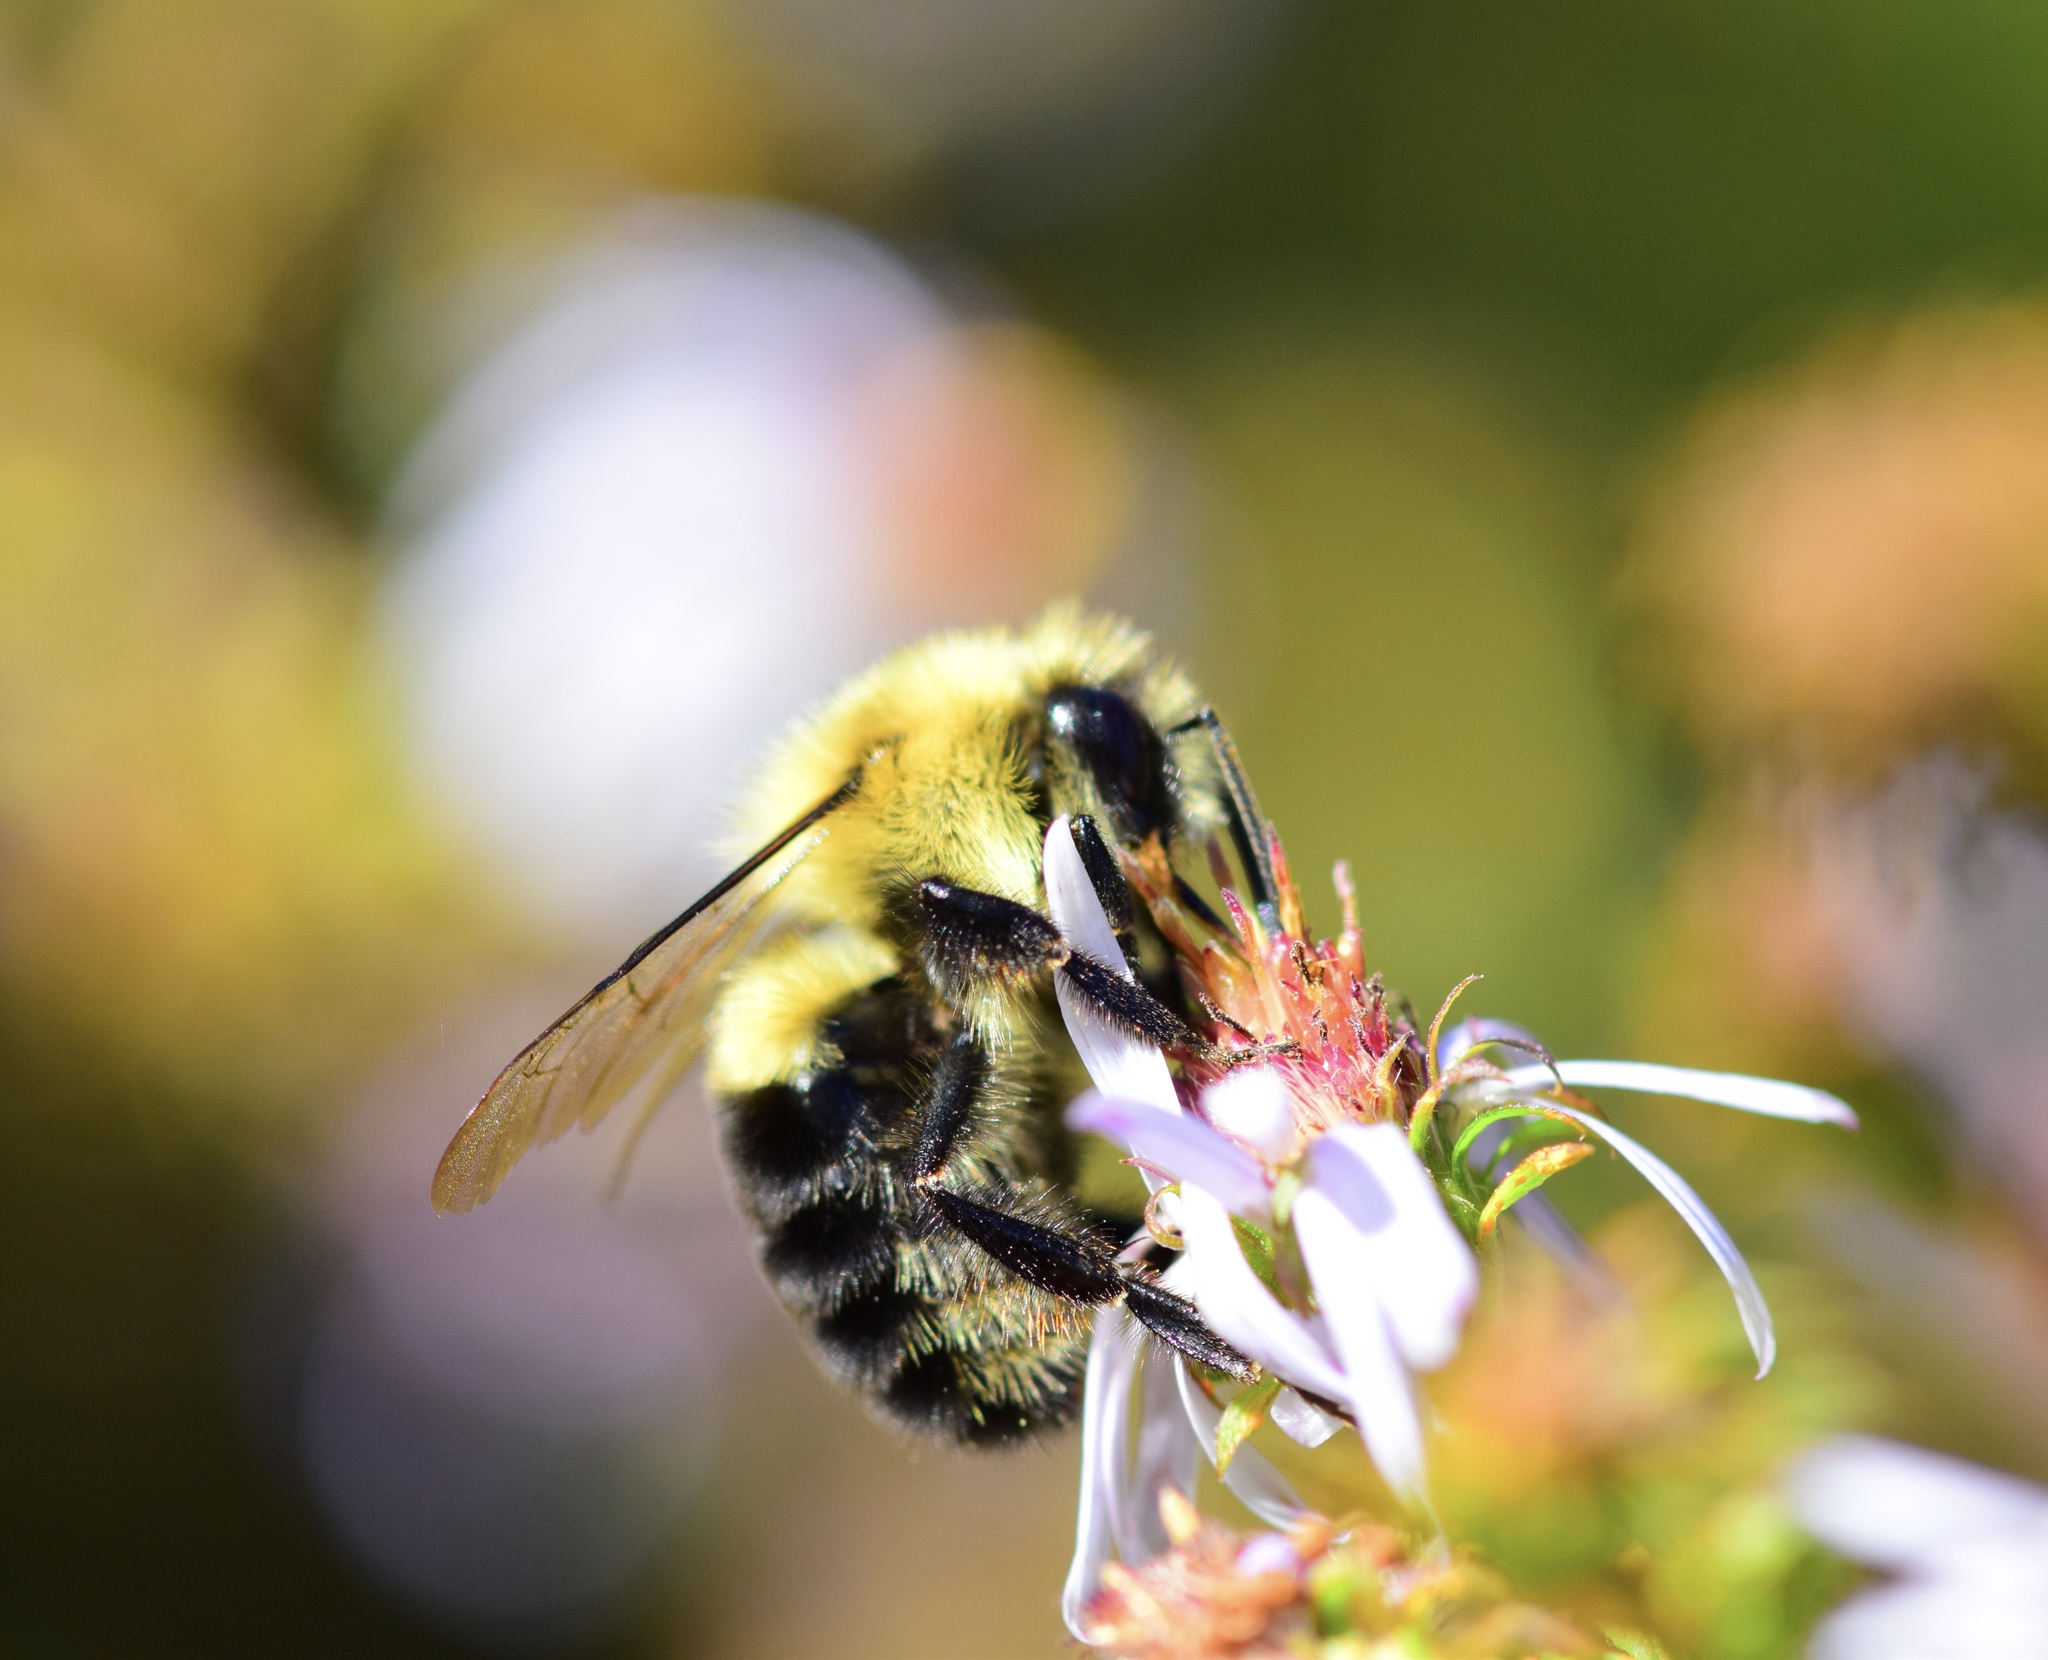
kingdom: Animalia
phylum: Arthropoda
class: Insecta
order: Hymenoptera
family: Apidae
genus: Bombus
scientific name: Bombus impatiens
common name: Common eastern bumble bee
